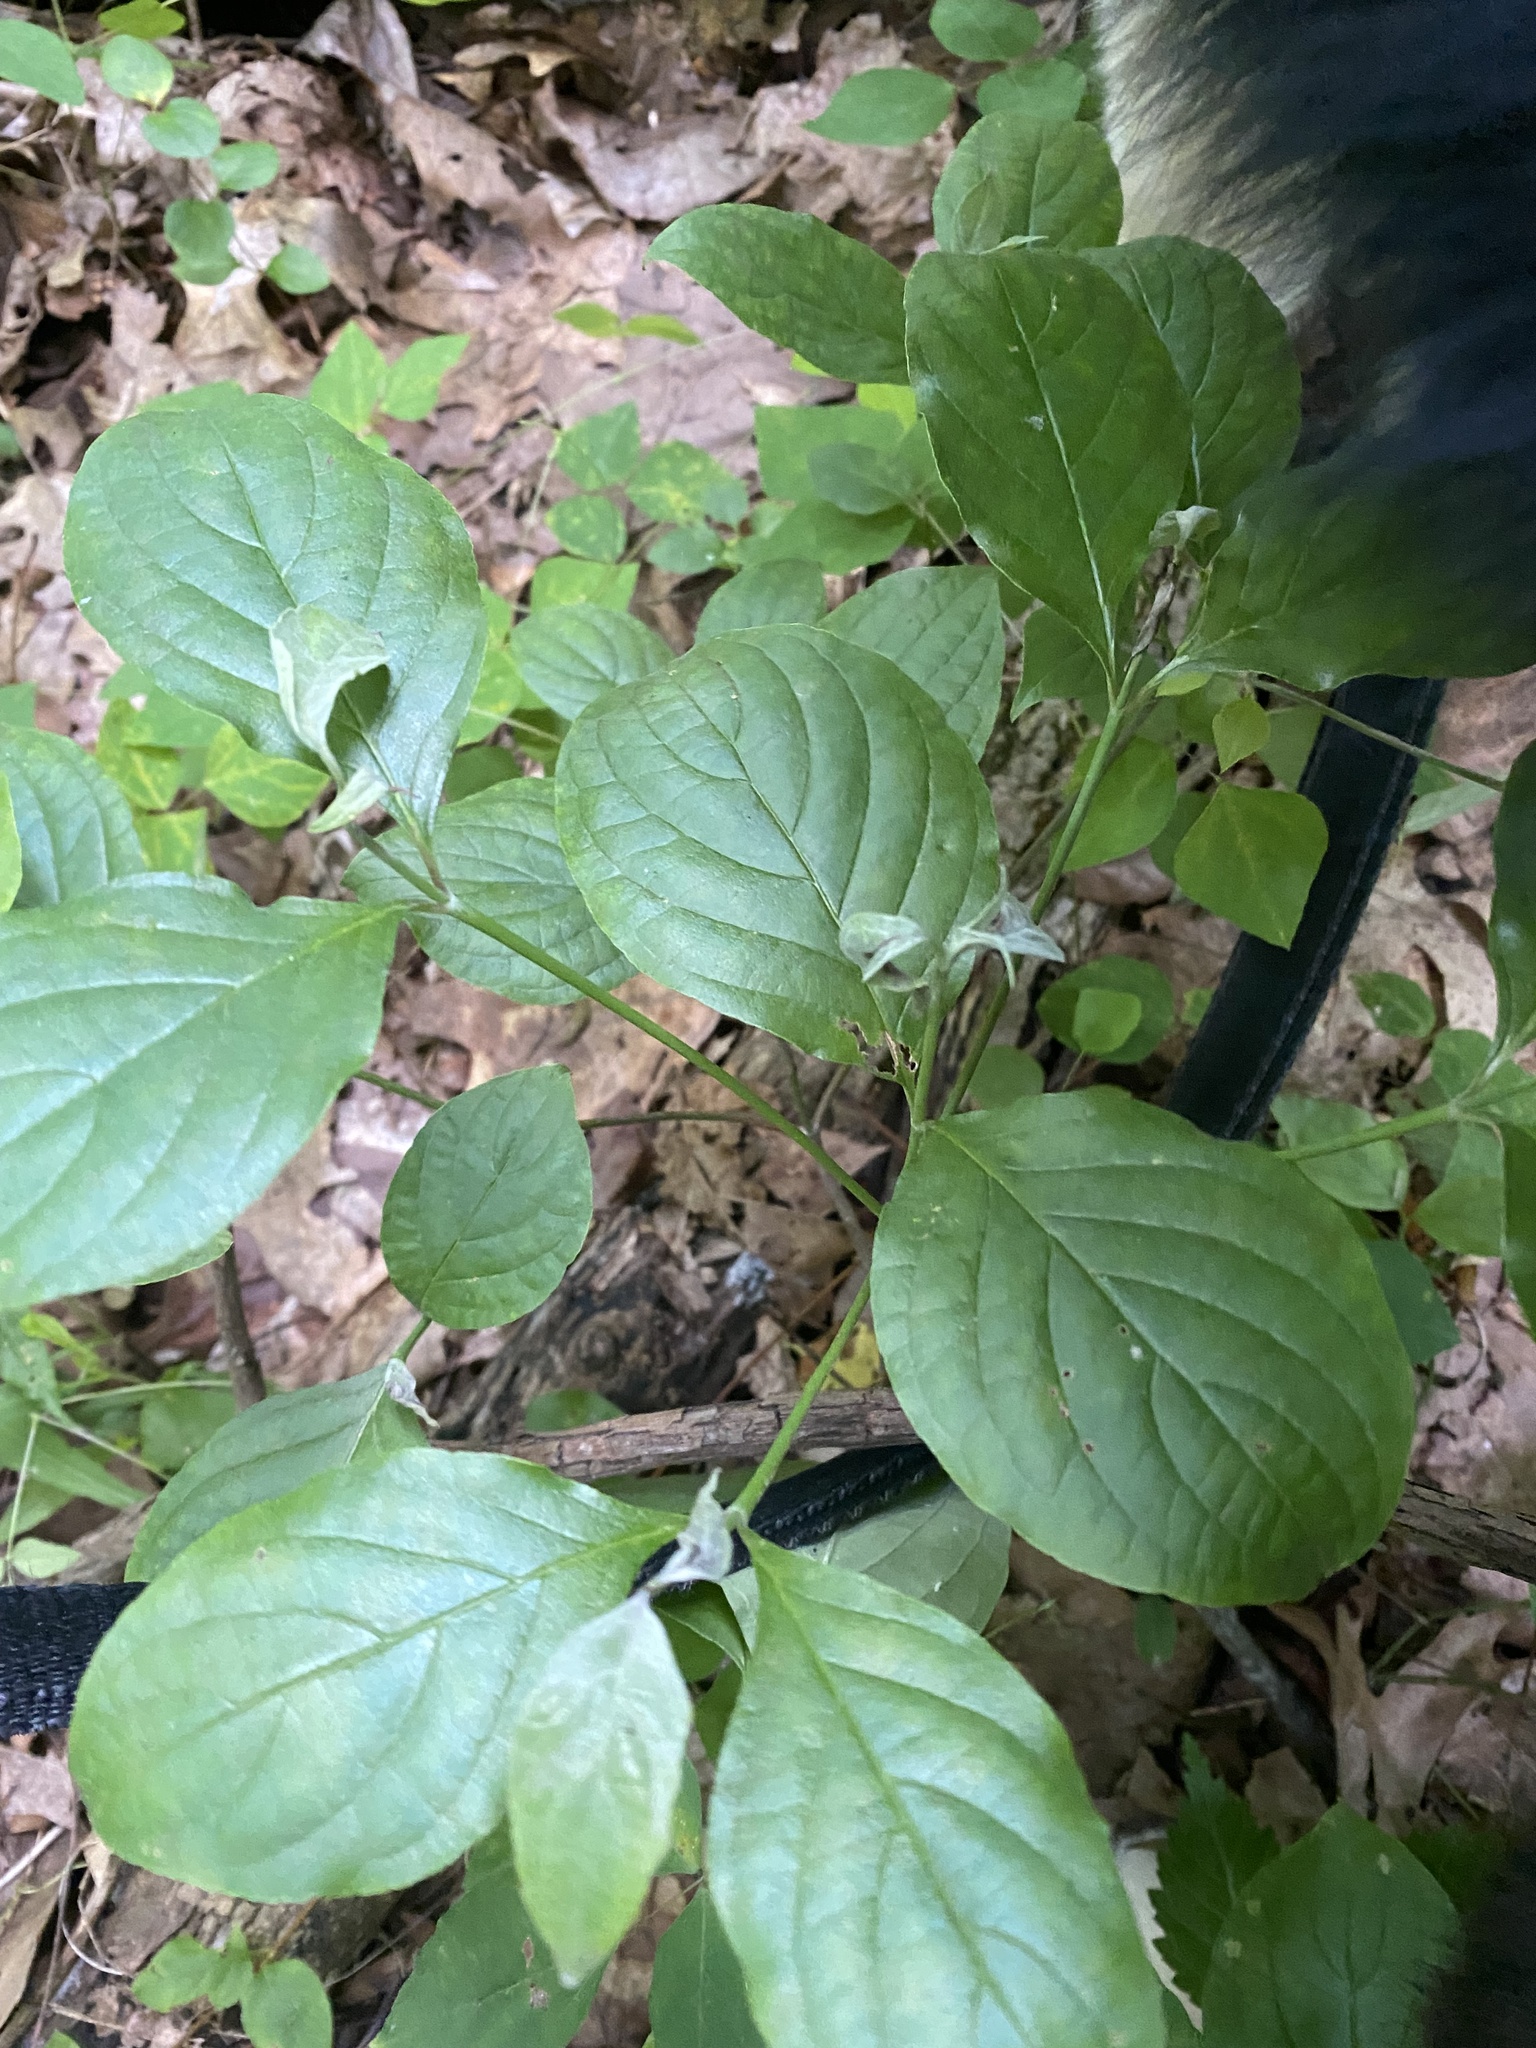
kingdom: Plantae
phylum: Tracheophyta
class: Magnoliopsida
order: Cornales
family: Cornaceae
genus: Cornus
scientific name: Cornus florida
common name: Flowering dogwood
